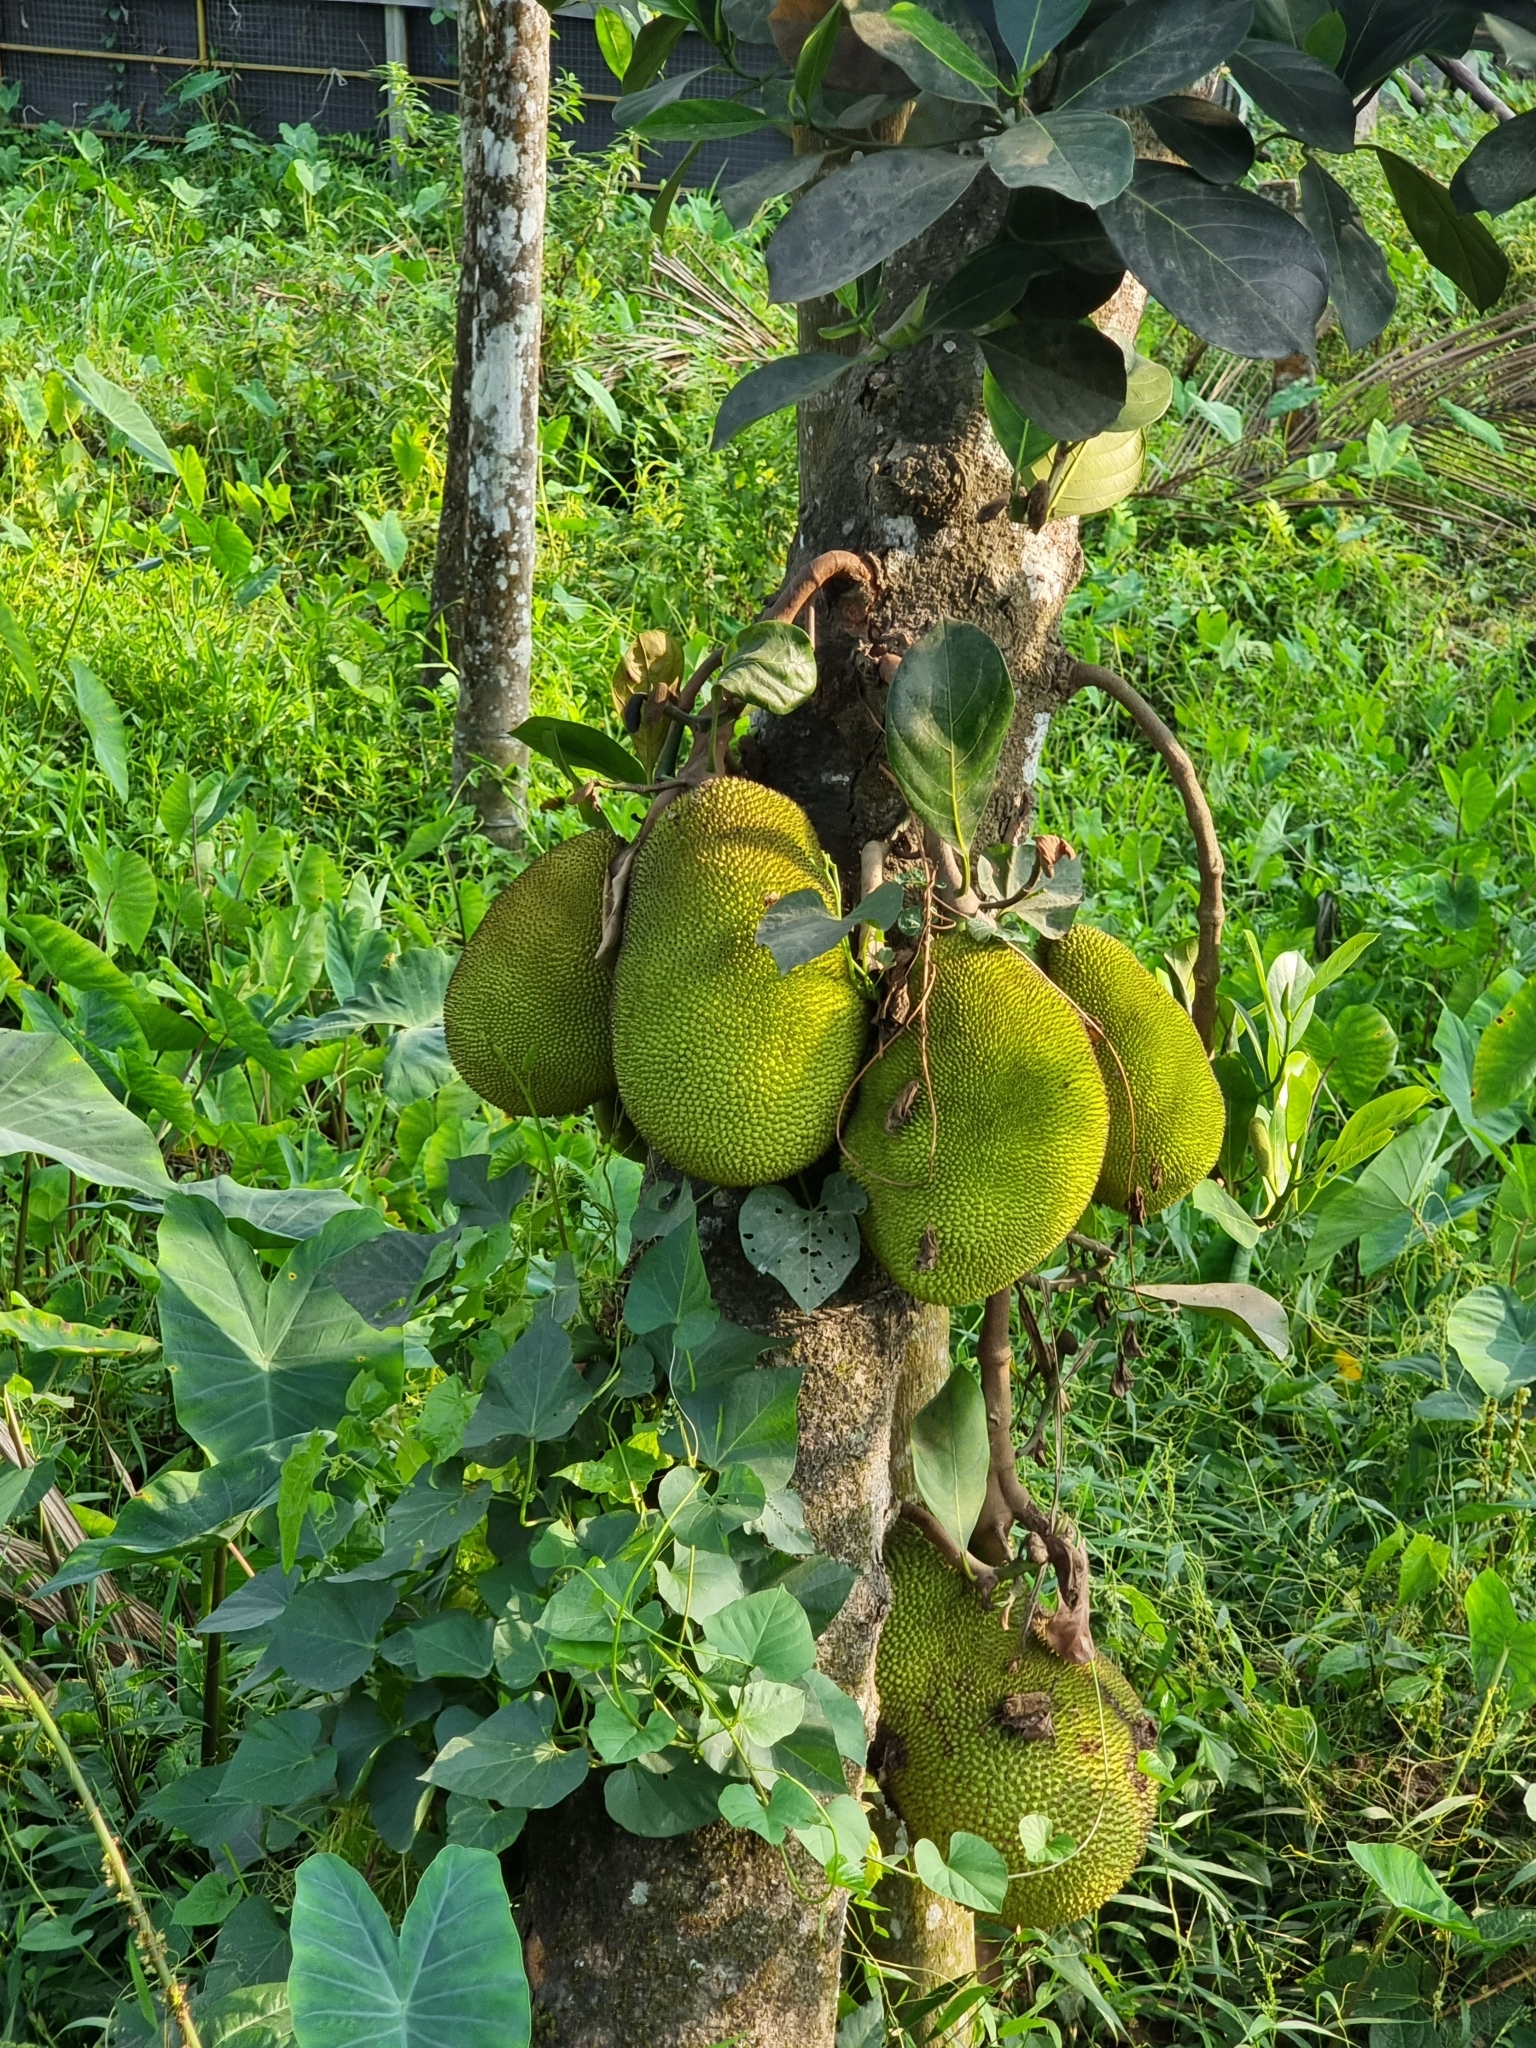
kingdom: Plantae
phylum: Tracheophyta
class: Magnoliopsida
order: Rosales
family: Moraceae
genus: Artocarpus
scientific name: Artocarpus heterophyllus
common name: Jackfruit
